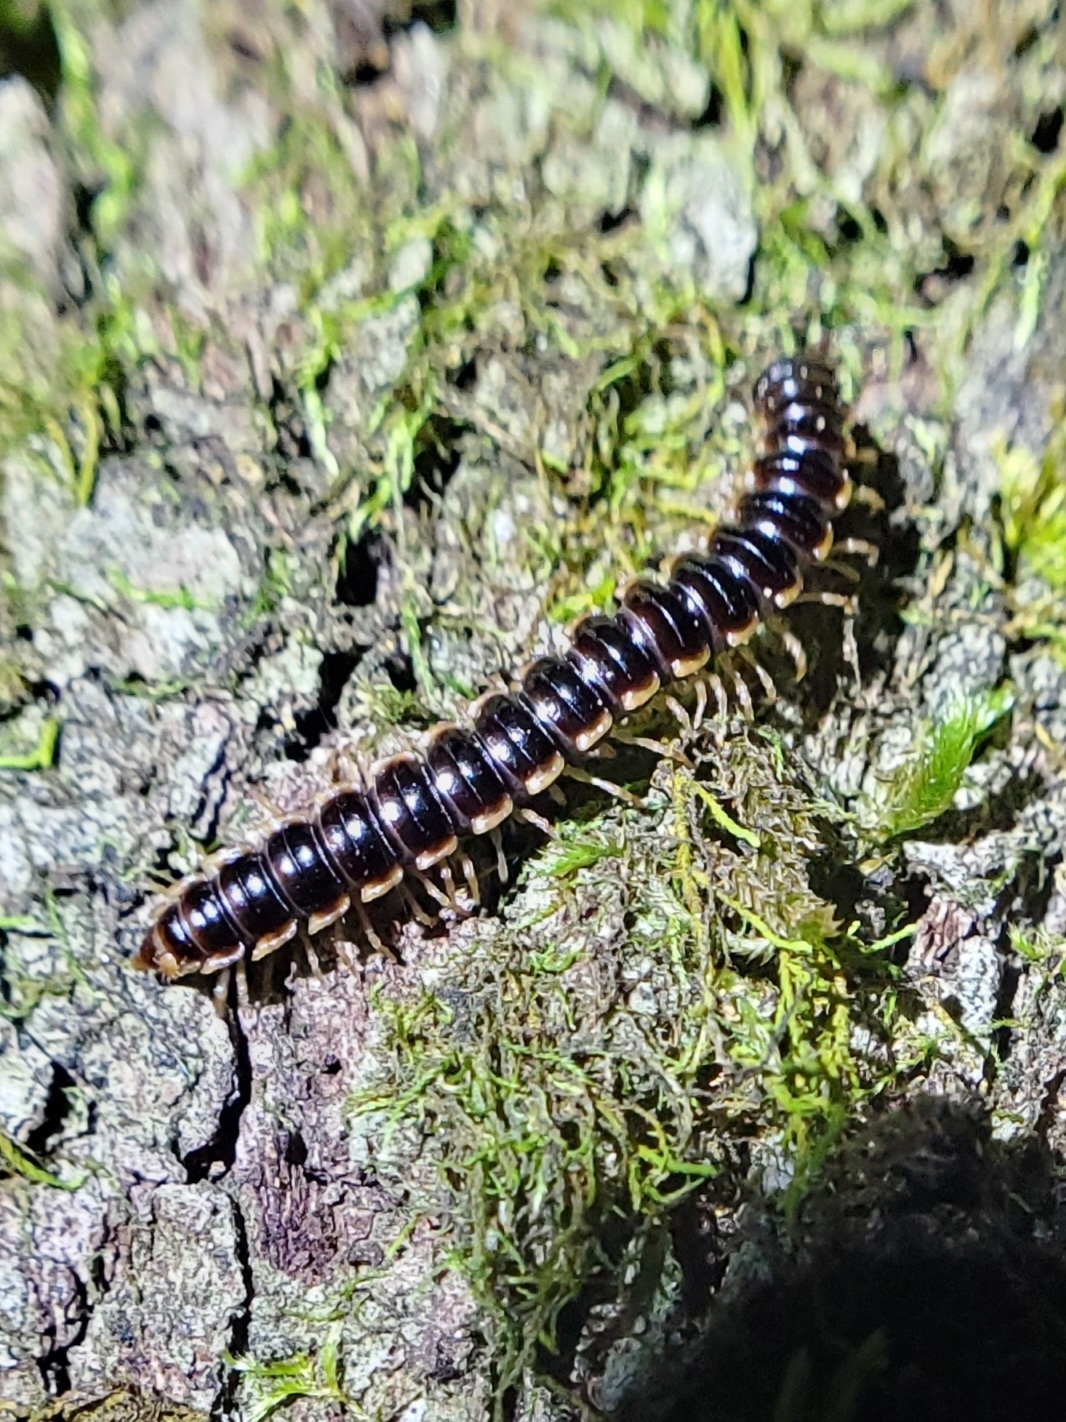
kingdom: Animalia
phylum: Arthropoda
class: Diplopoda
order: Polydesmida
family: Paradoxosomatidae
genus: Oxidus
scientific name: Oxidus gracilis
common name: Greenhouse millipede
